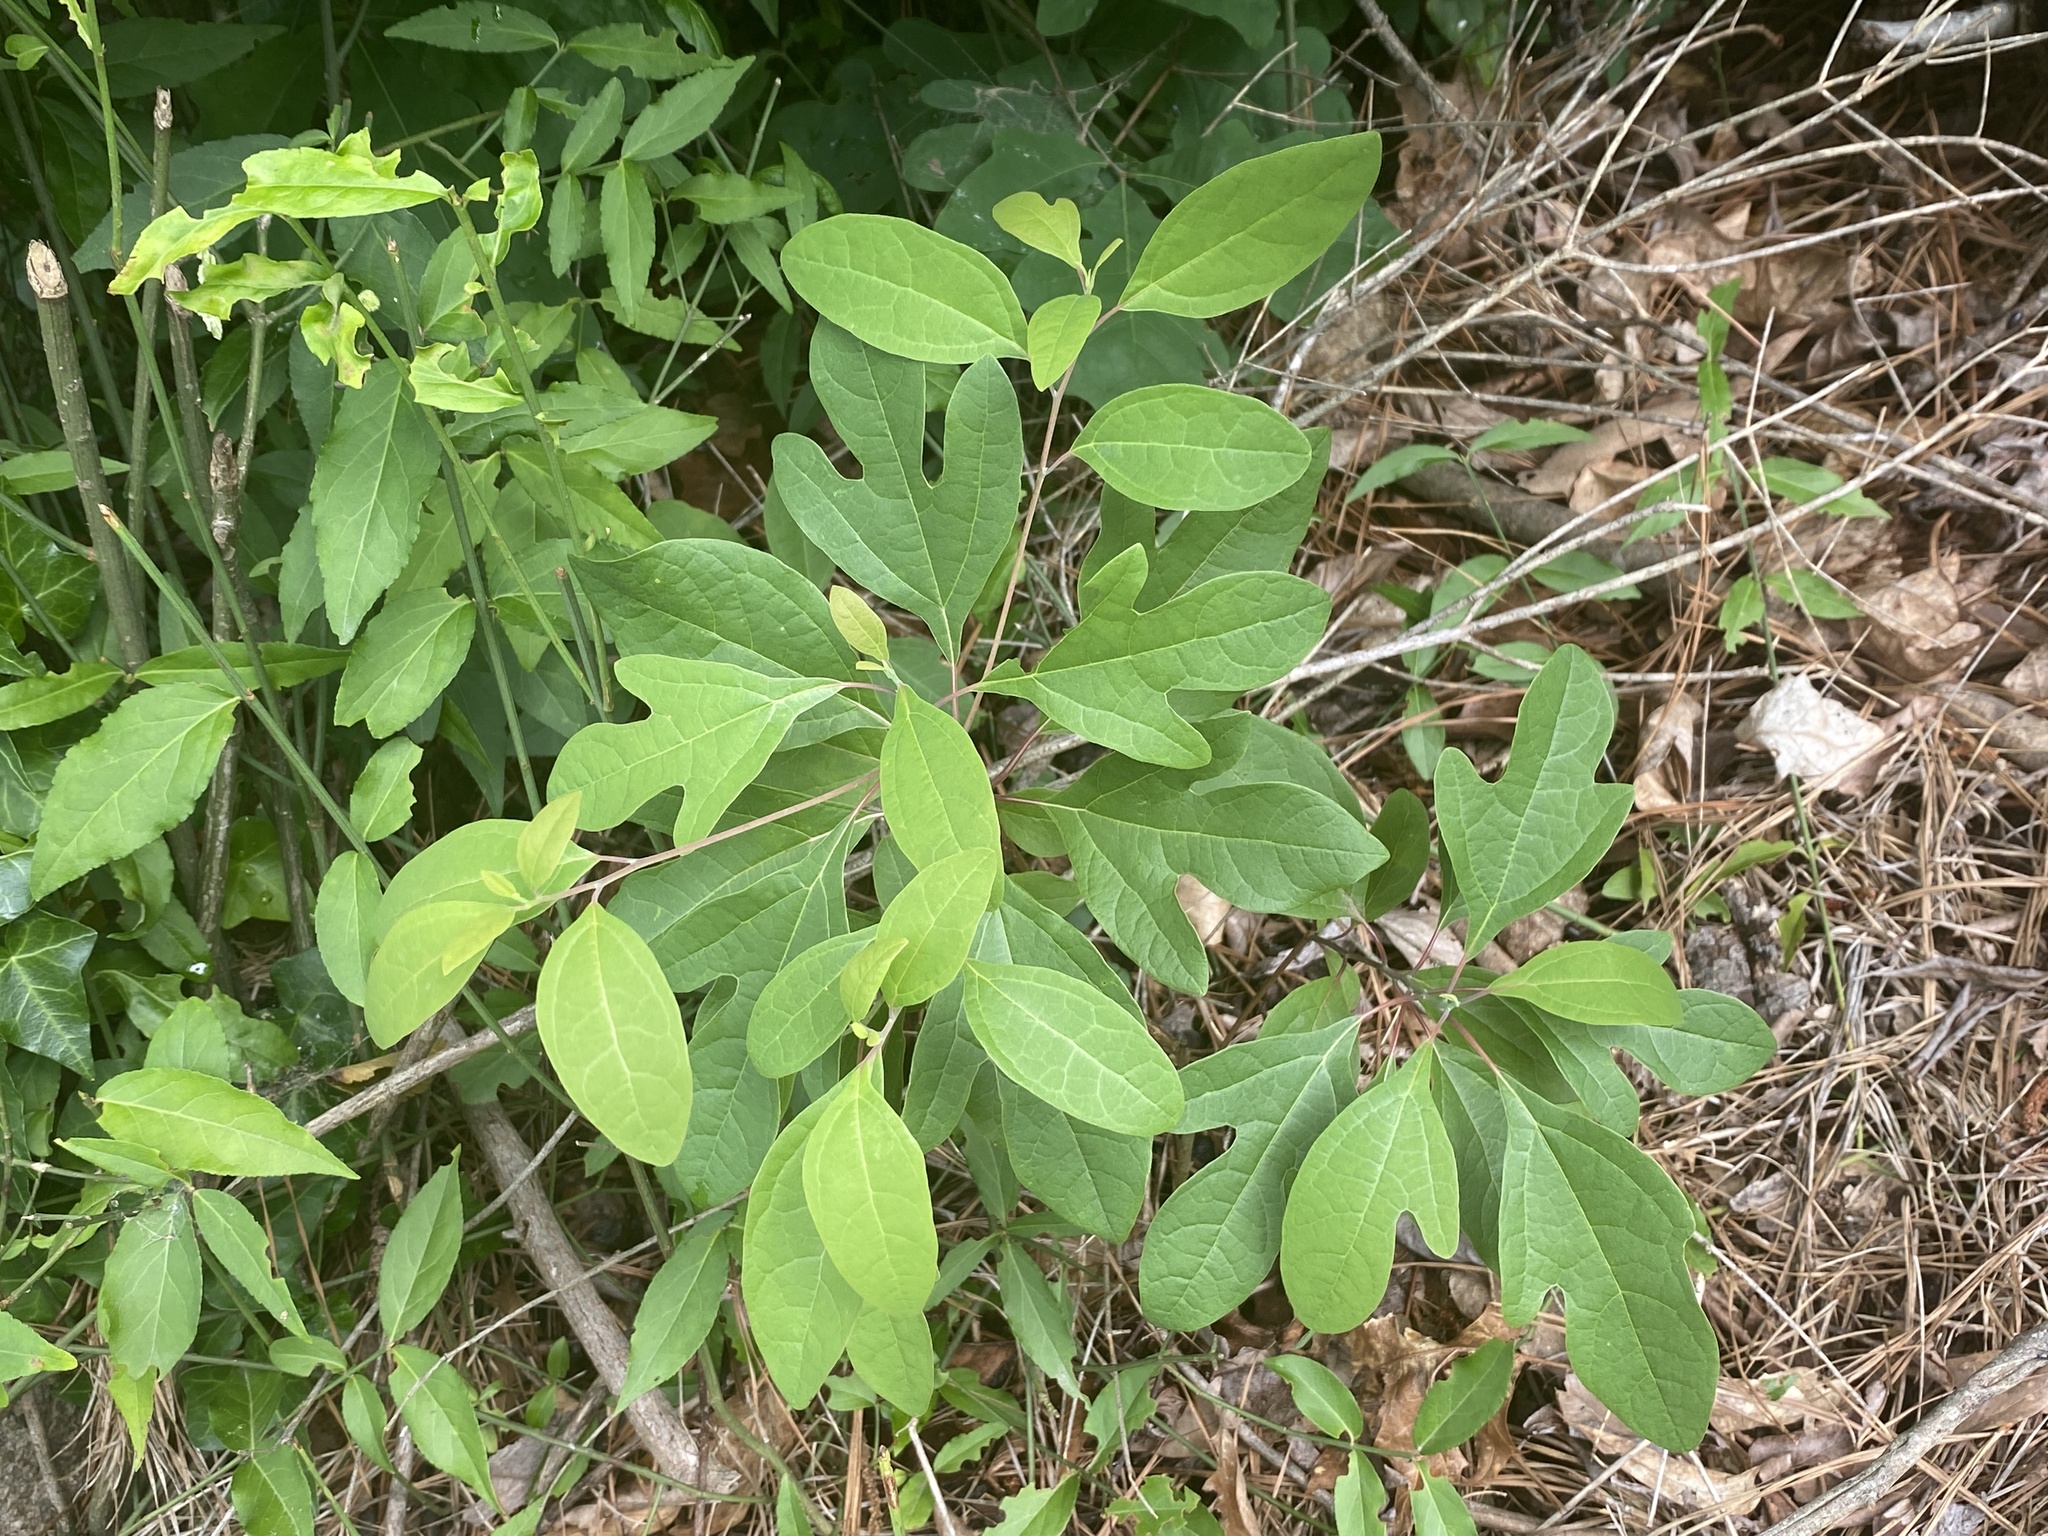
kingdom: Plantae
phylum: Tracheophyta
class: Magnoliopsida
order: Laurales
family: Lauraceae
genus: Sassafras
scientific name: Sassafras albidum
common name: Sassafras
